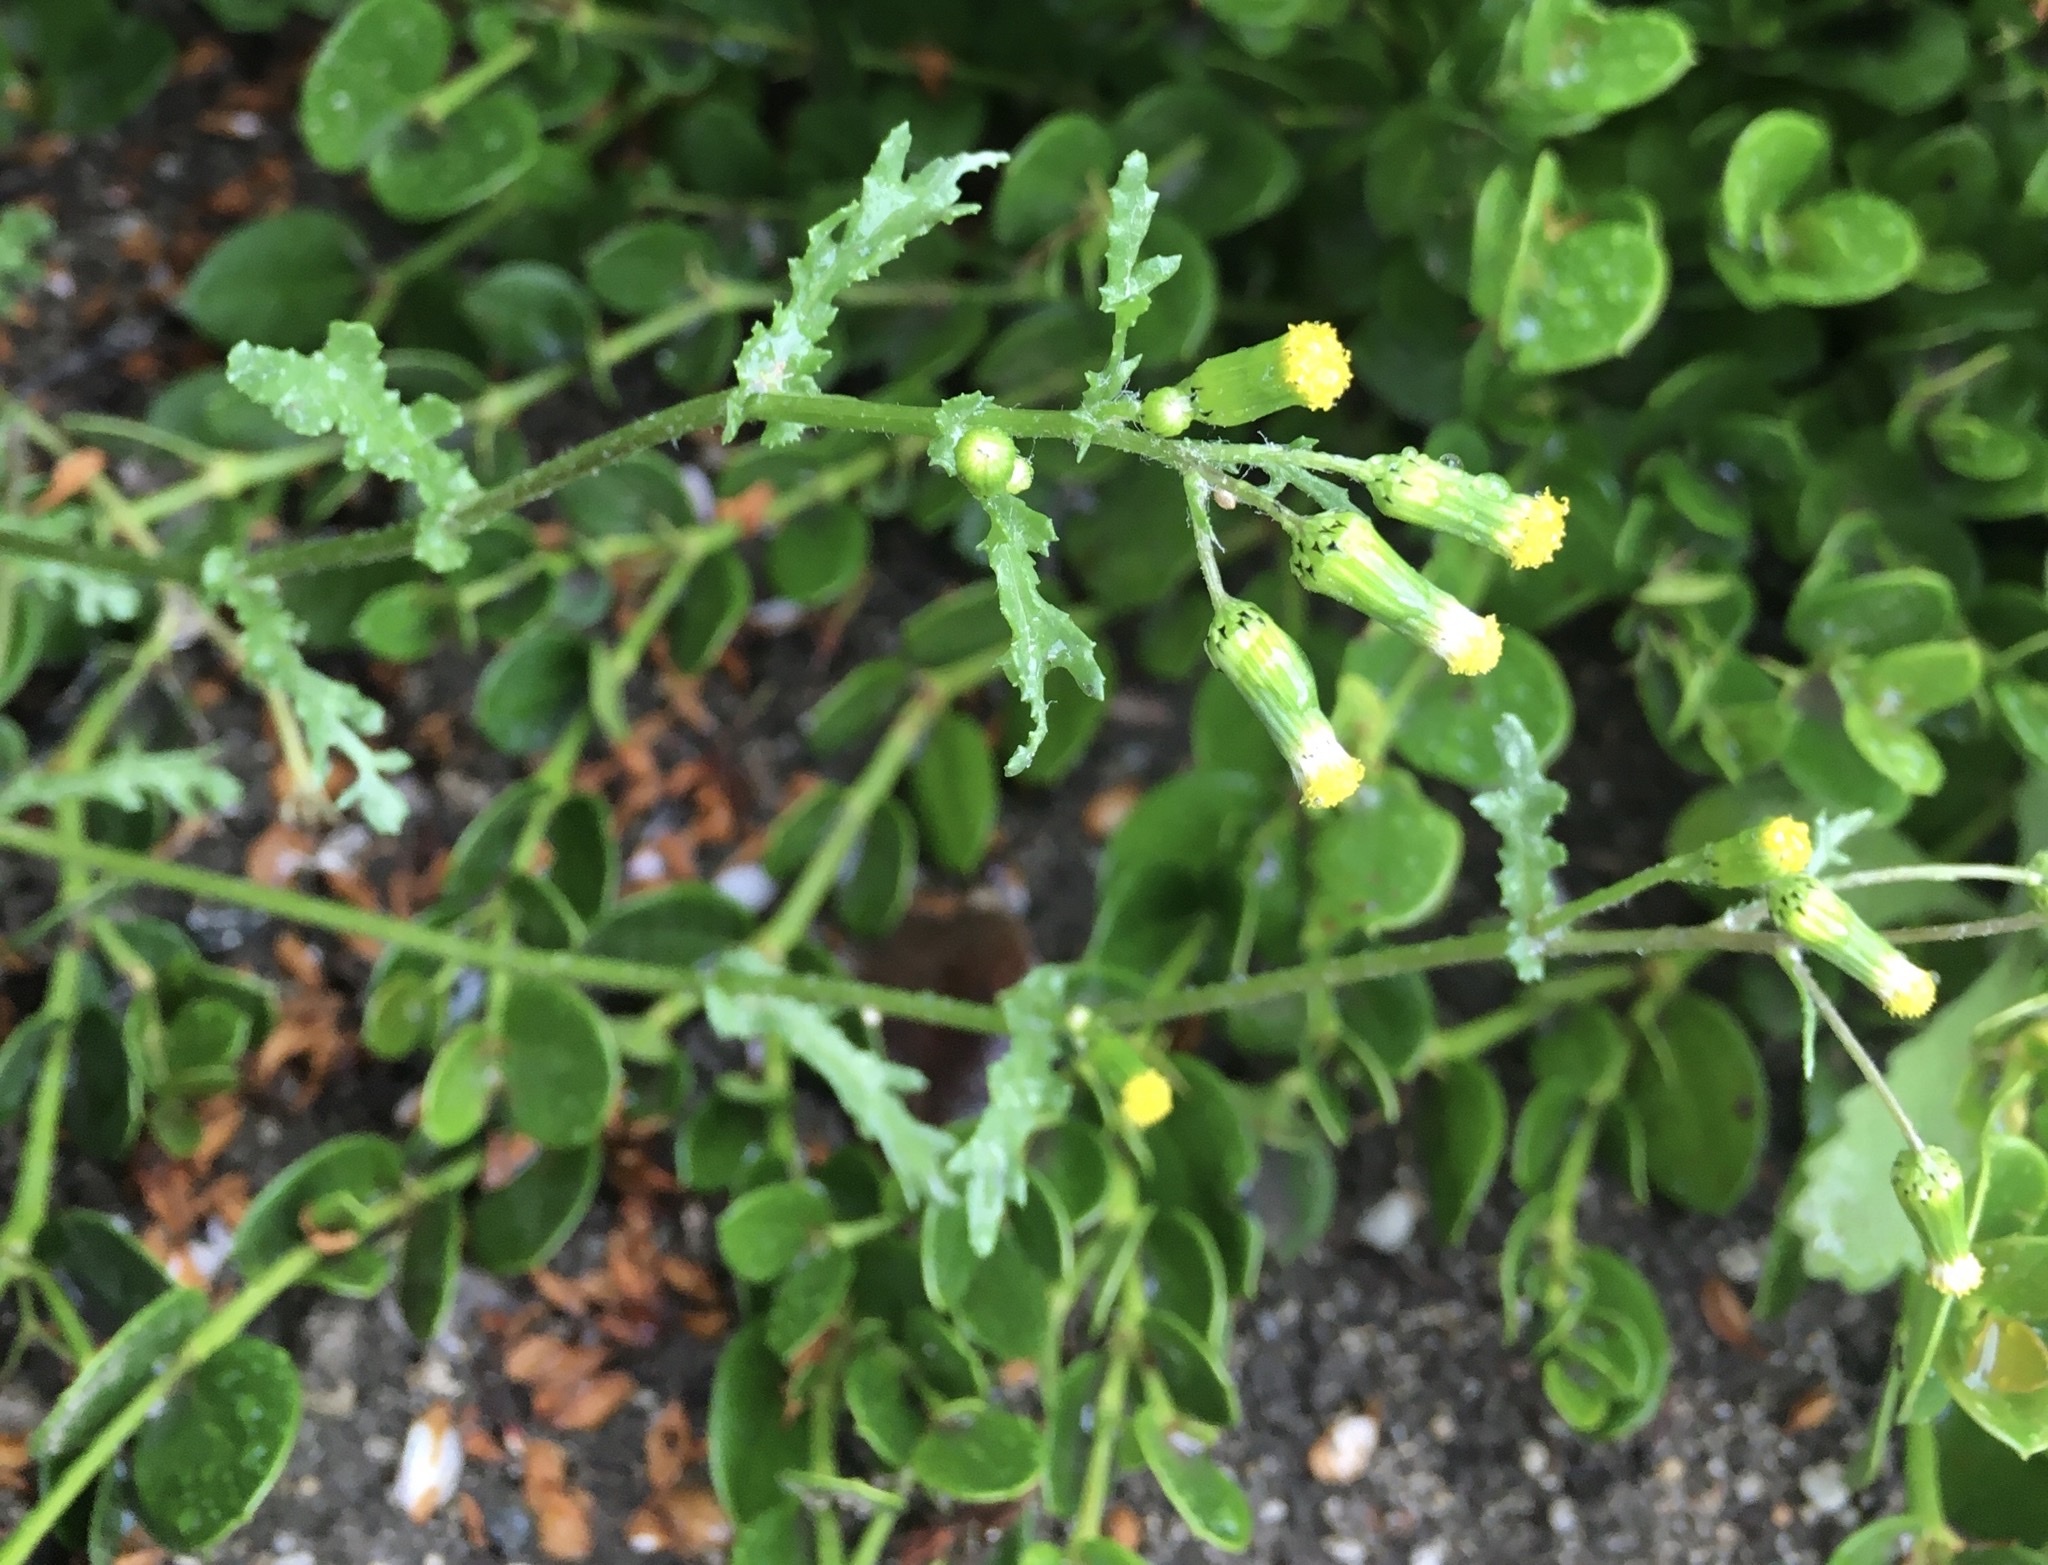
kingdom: Plantae
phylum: Tracheophyta
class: Magnoliopsida
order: Asterales
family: Asteraceae
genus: Senecio
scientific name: Senecio vulgaris
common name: Old-man-in-the-spring
